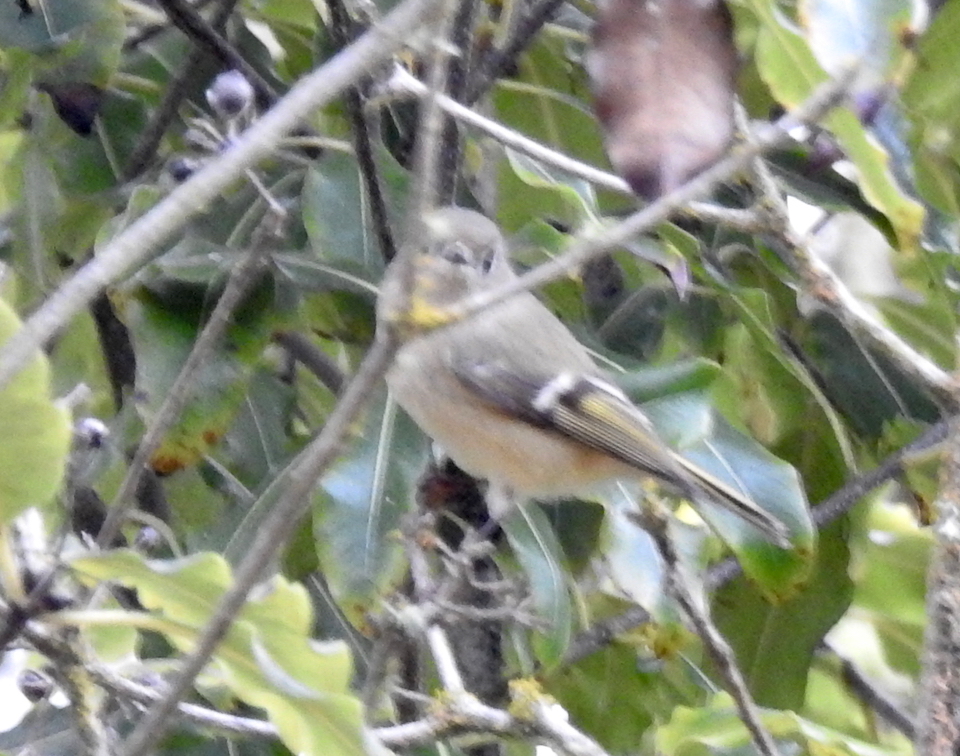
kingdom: Animalia
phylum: Chordata
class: Aves
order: Passeriformes
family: Regulidae
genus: Regulus
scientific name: Regulus calendula
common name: Ruby-crowned kinglet
